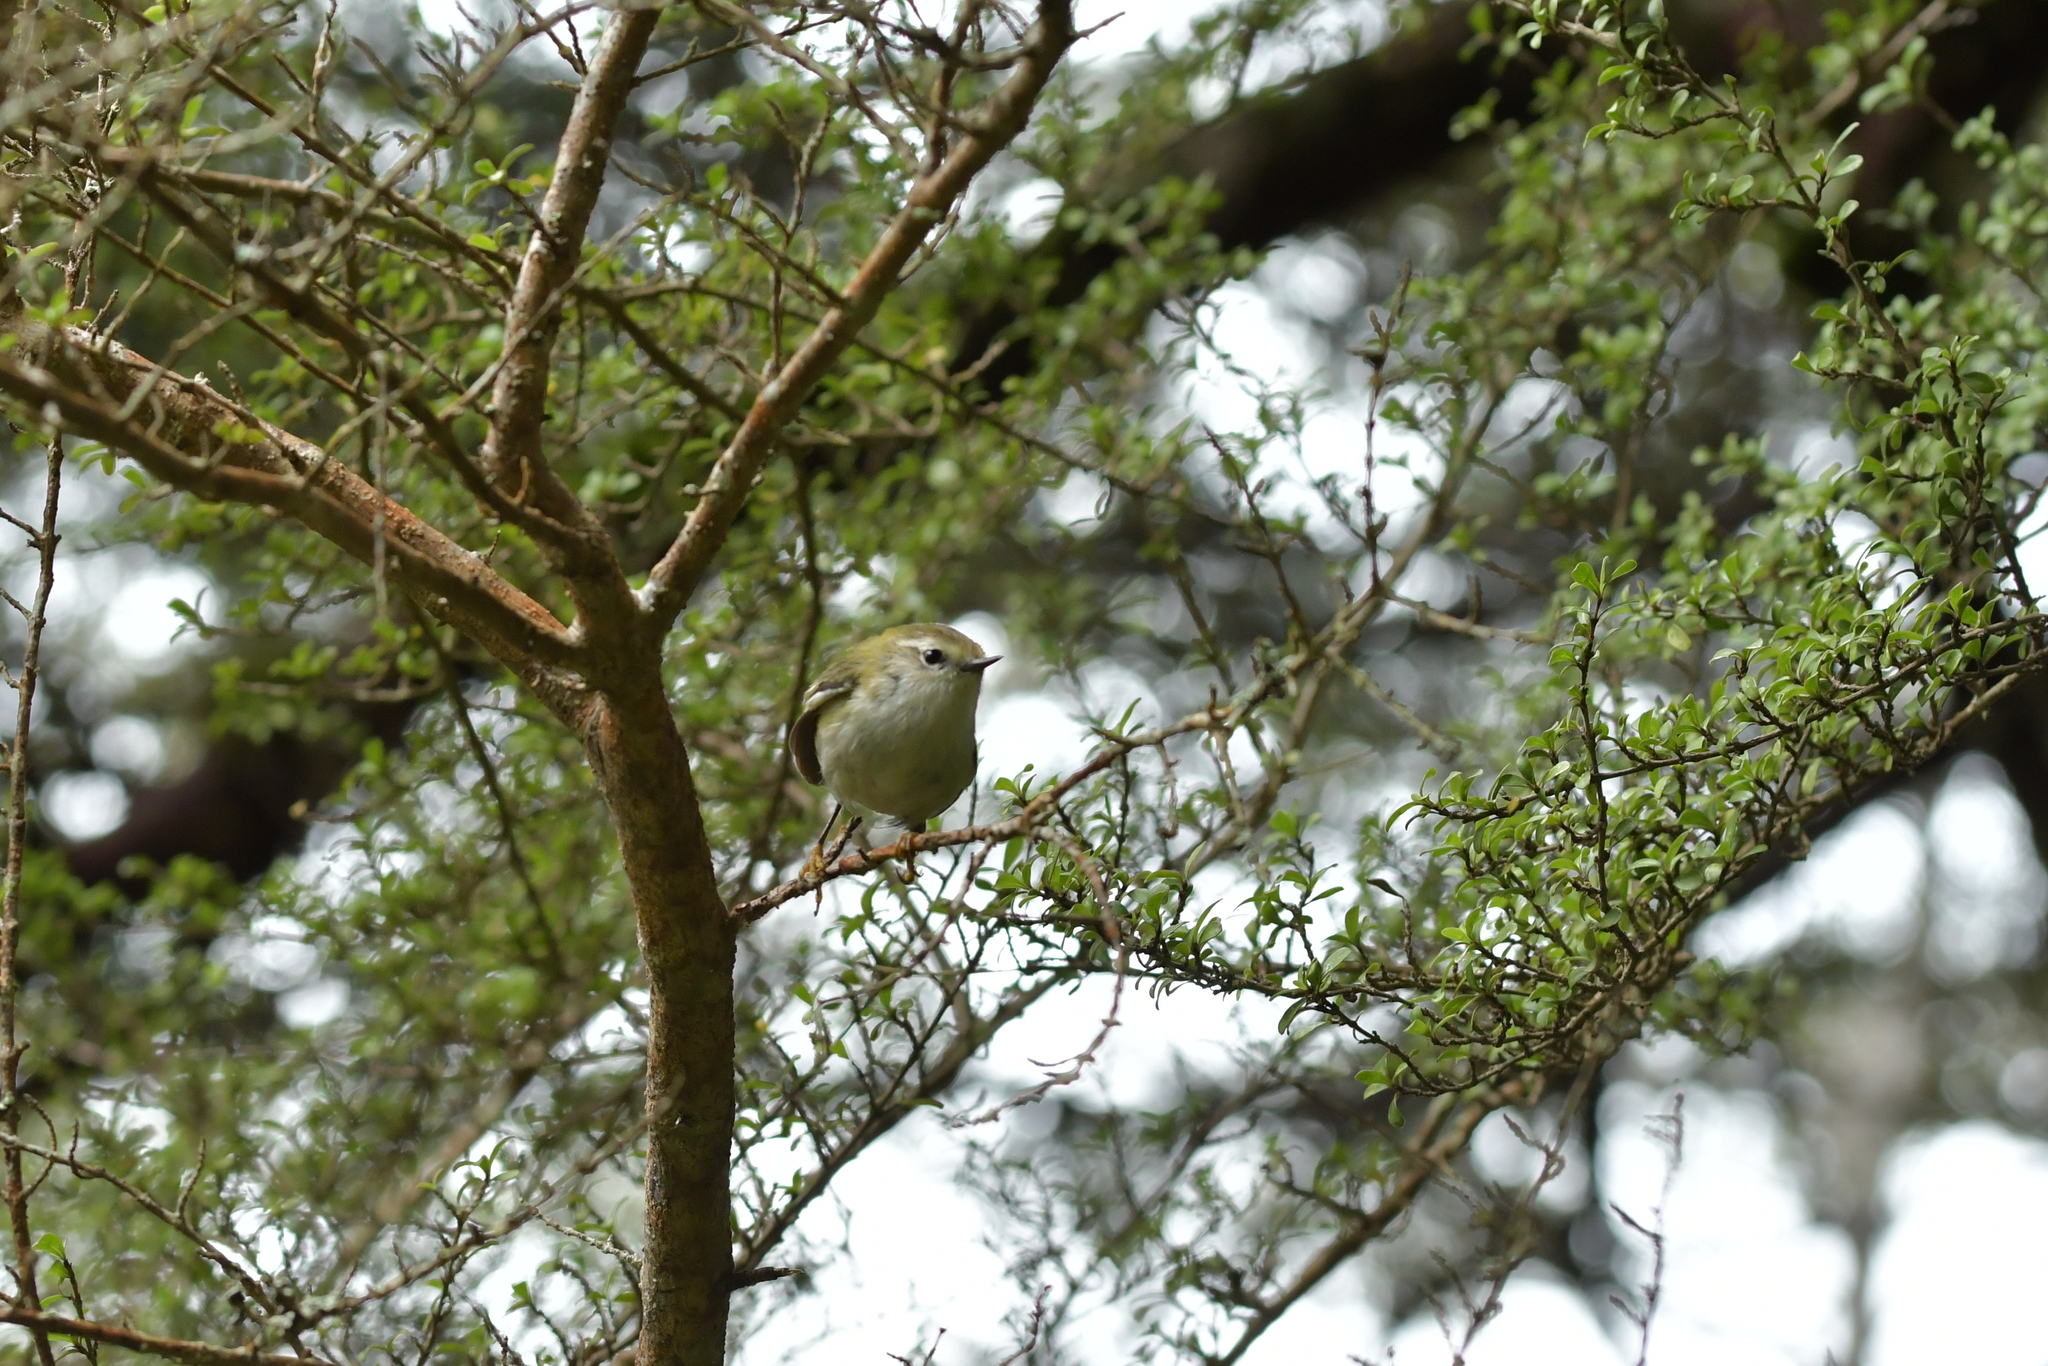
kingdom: Animalia
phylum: Chordata
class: Aves
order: Passeriformes
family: Acanthisittidae
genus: Acanthisitta
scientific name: Acanthisitta chloris
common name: Rifleman
